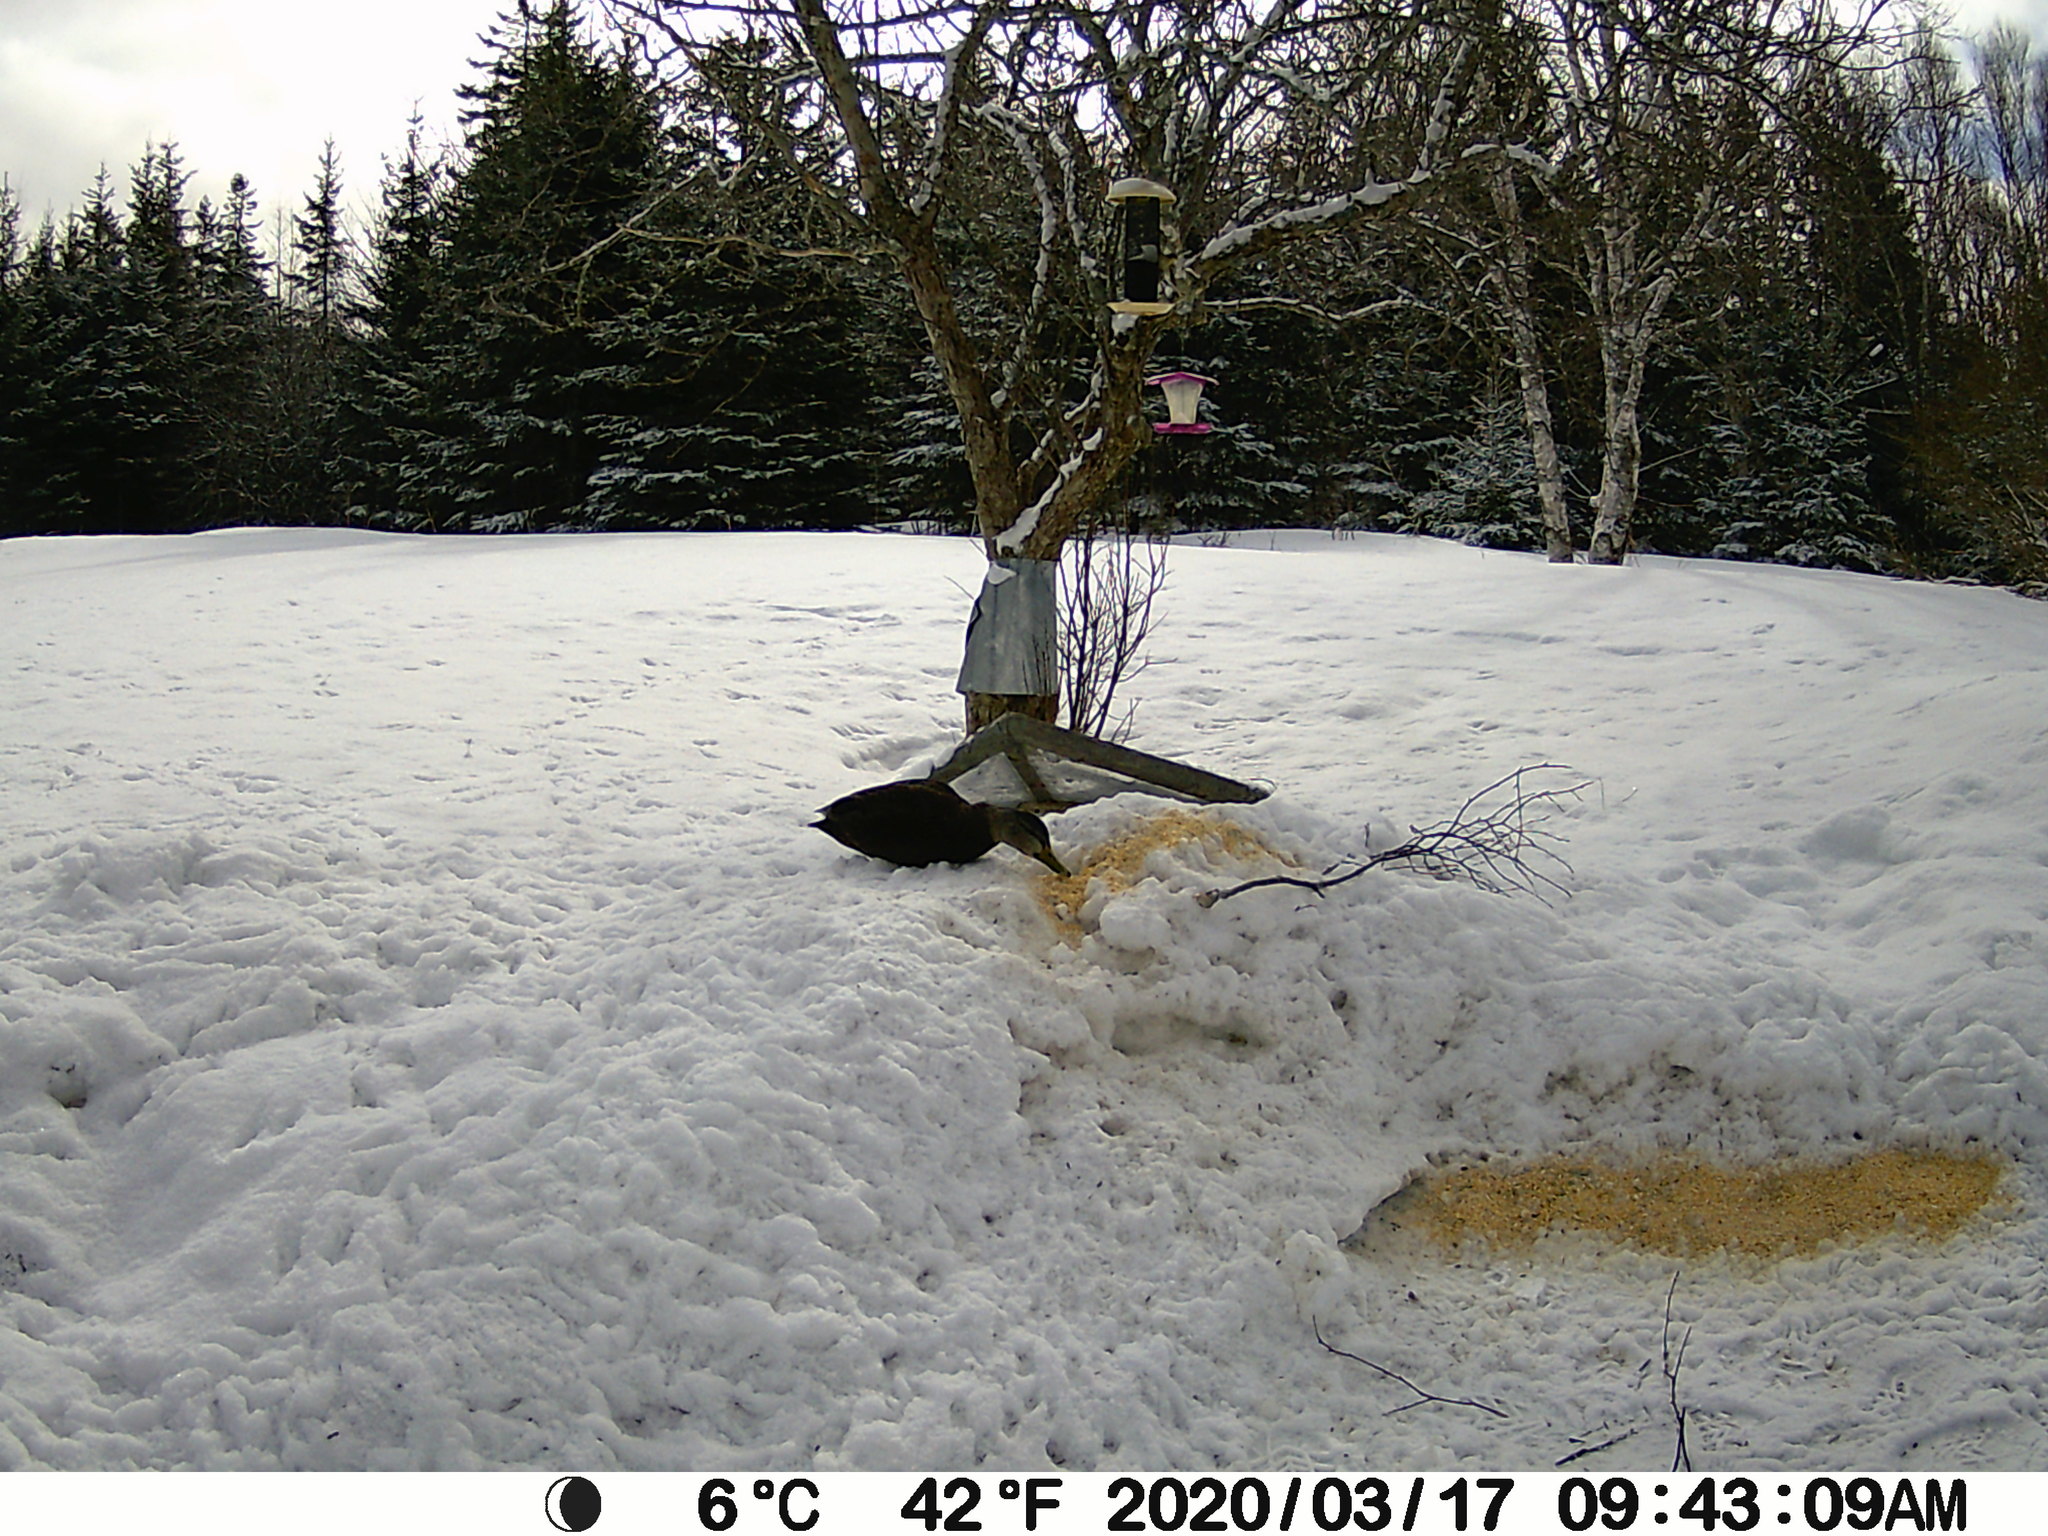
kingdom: Animalia
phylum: Chordata
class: Aves
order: Anseriformes
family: Anatidae
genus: Anas
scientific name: Anas rubripes
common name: American black duck
